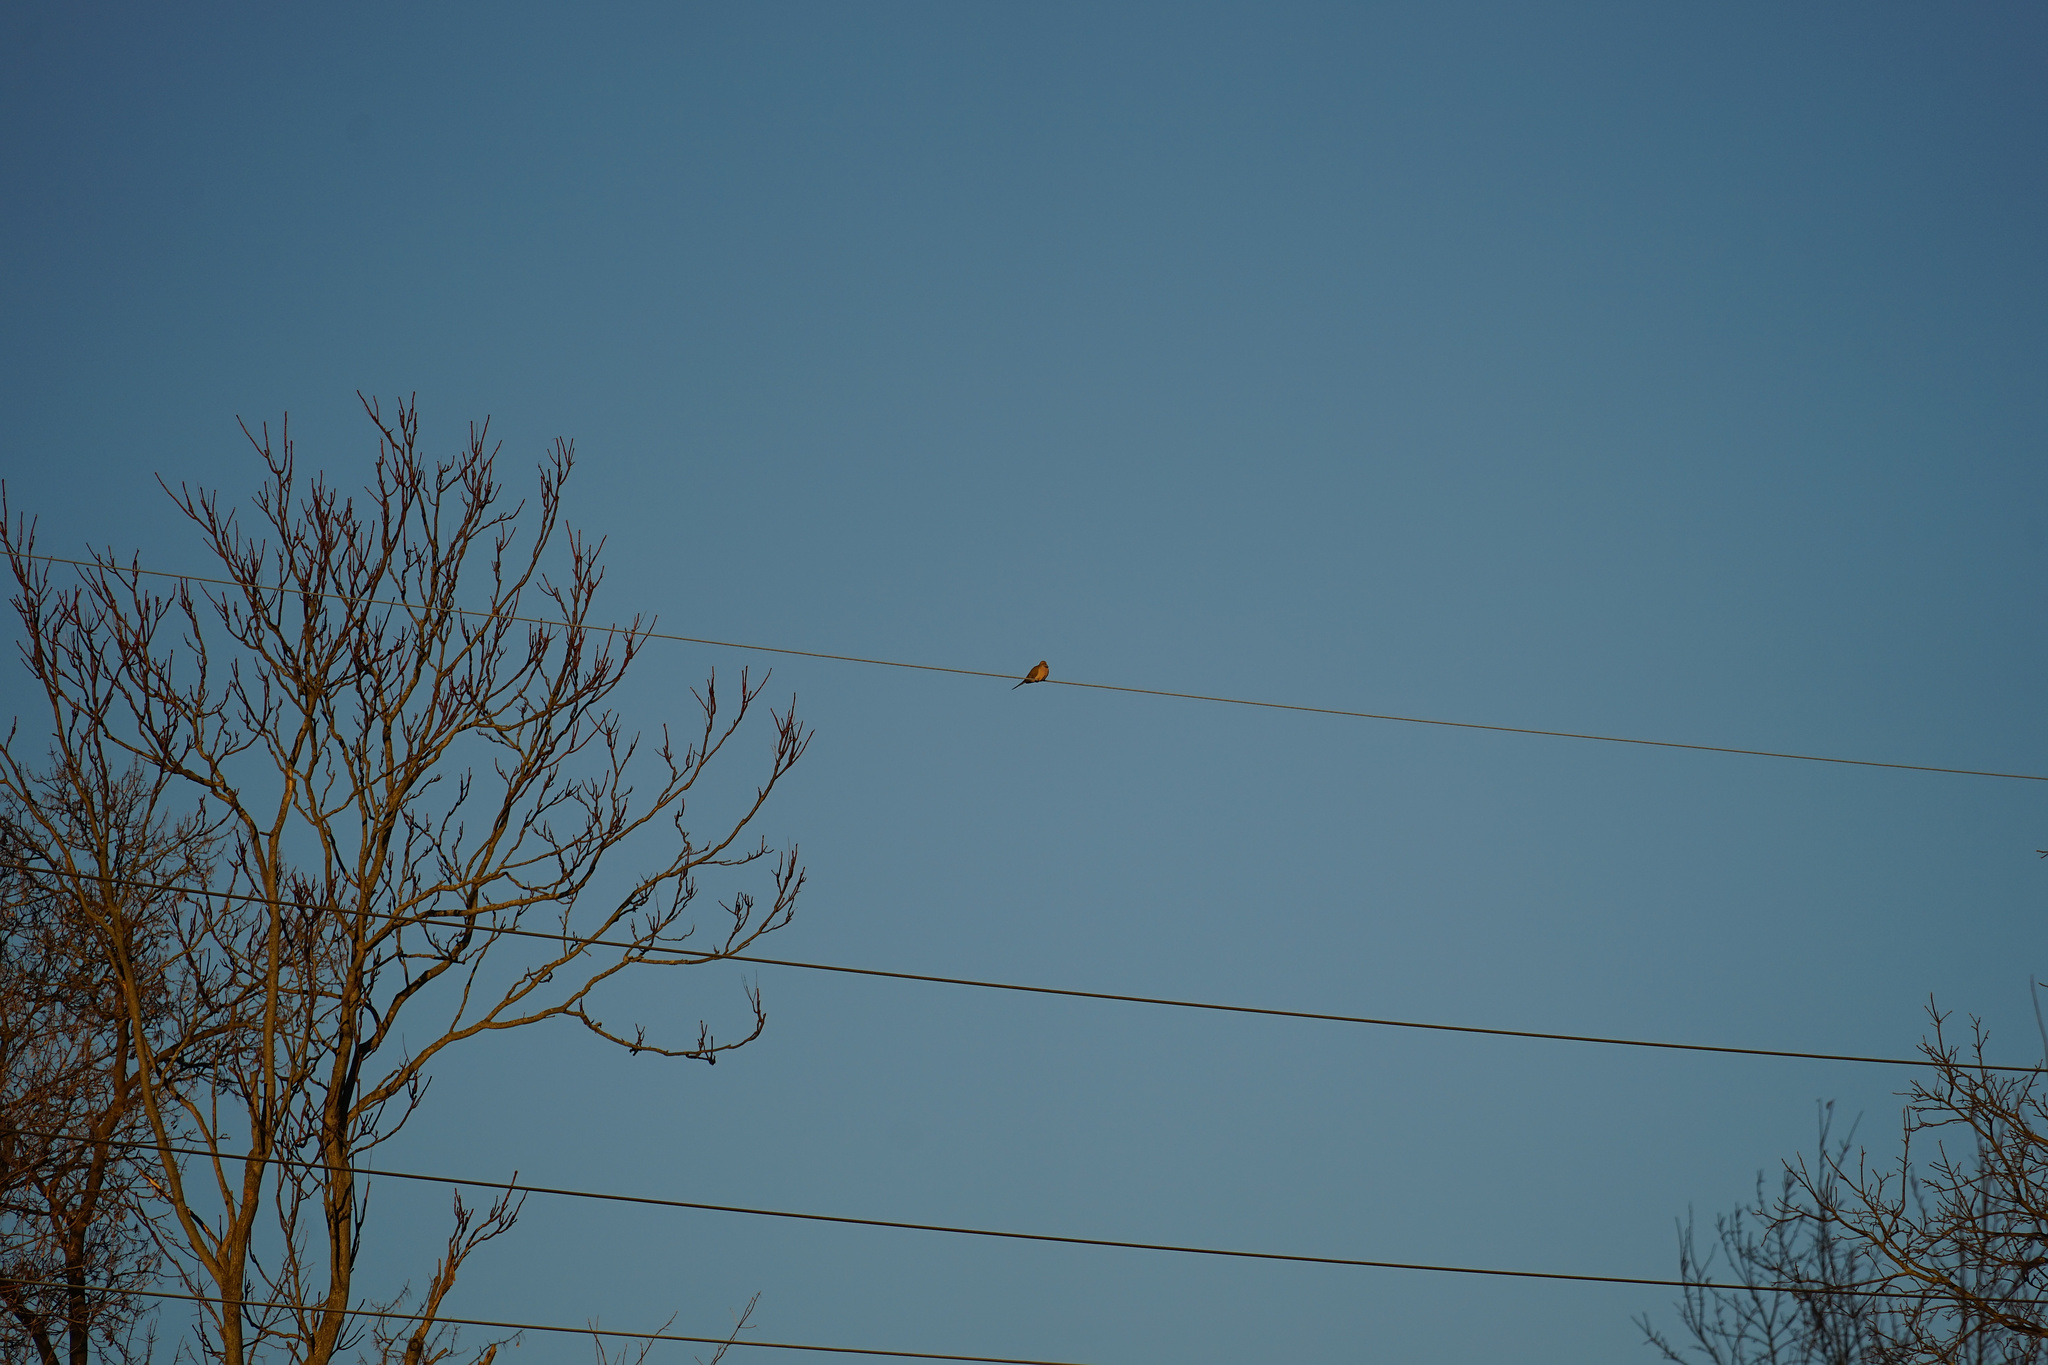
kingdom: Animalia
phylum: Chordata
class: Aves
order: Columbiformes
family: Columbidae
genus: Zenaida
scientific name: Zenaida macroura
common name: Mourning dove
